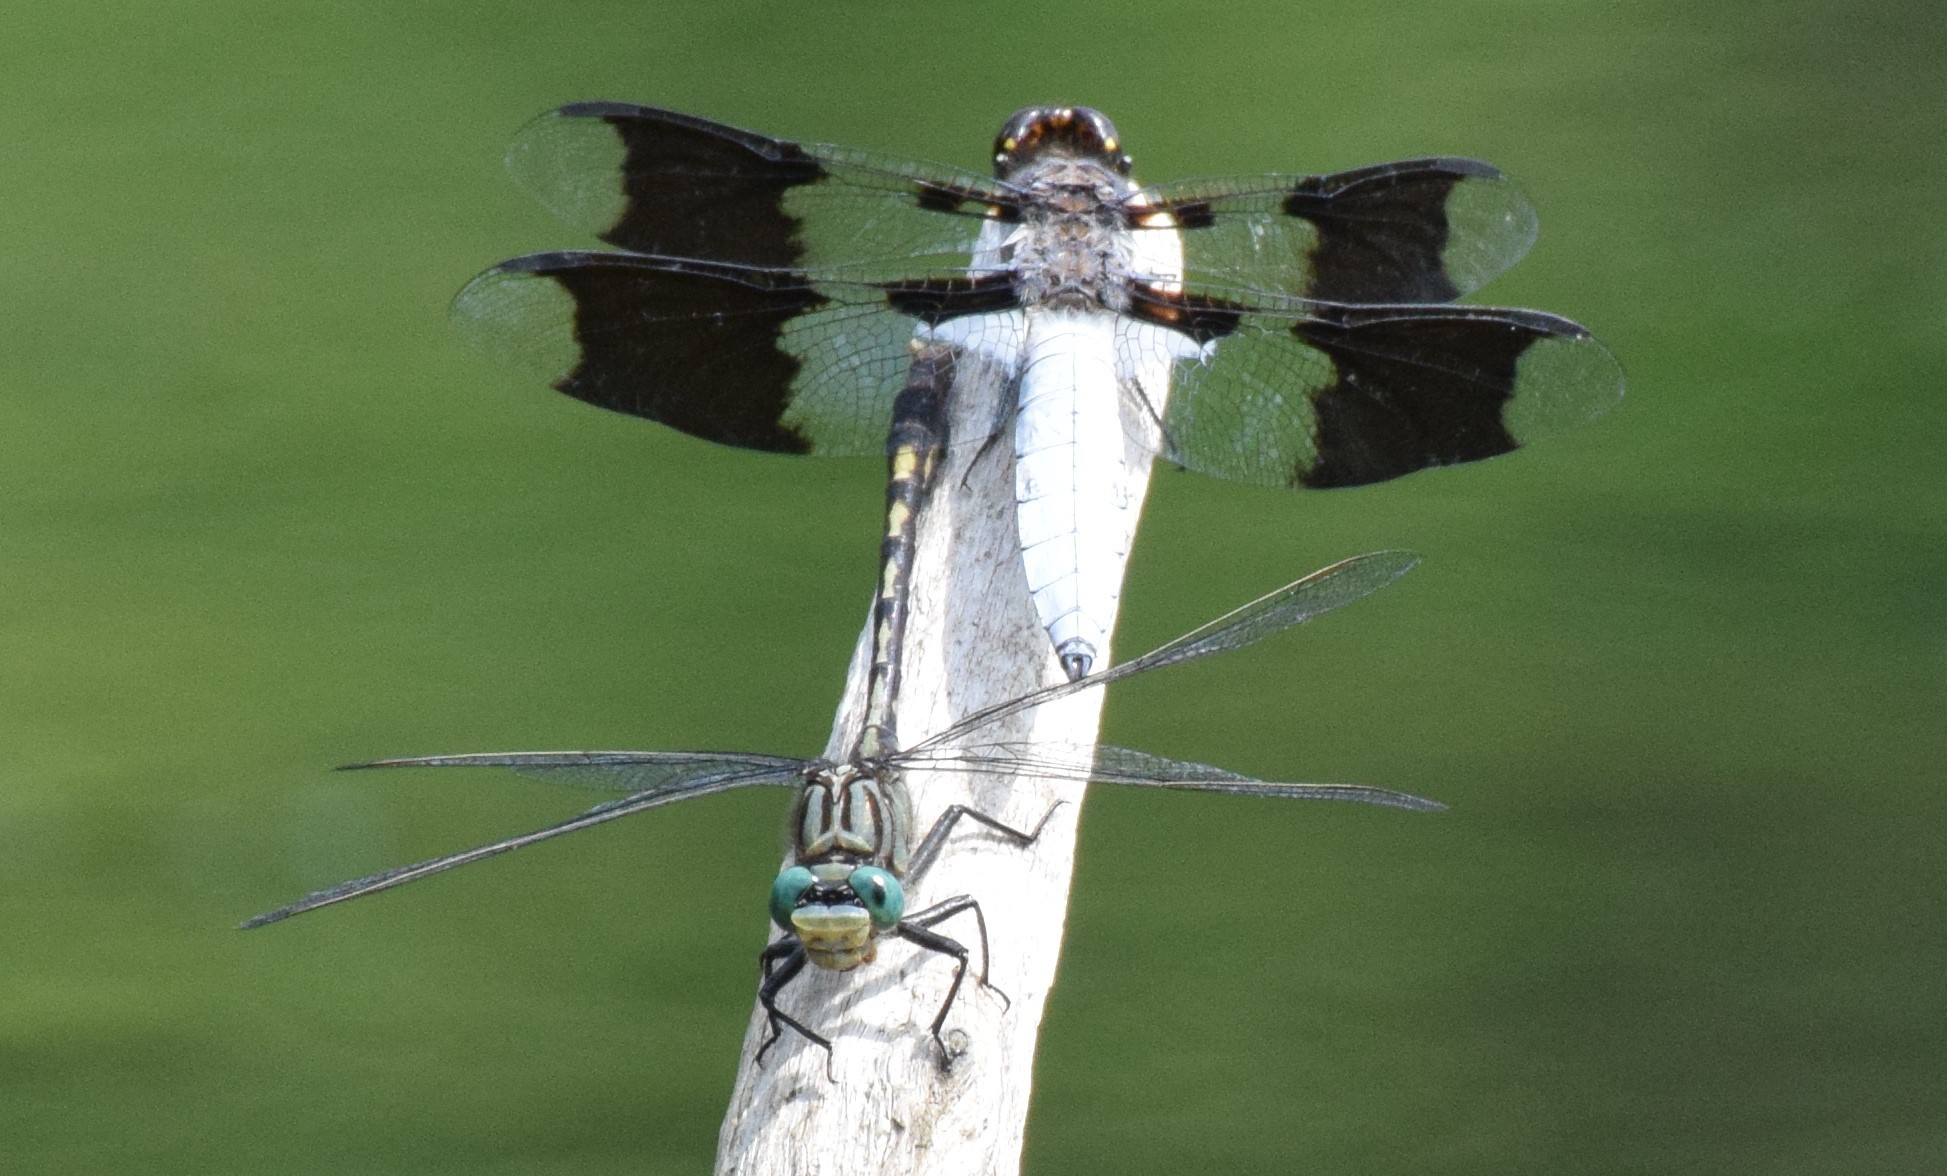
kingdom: Animalia
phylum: Arthropoda
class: Insecta
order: Odonata
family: Libellulidae
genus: Plathemis
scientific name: Plathemis lydia
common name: Common whitetail
